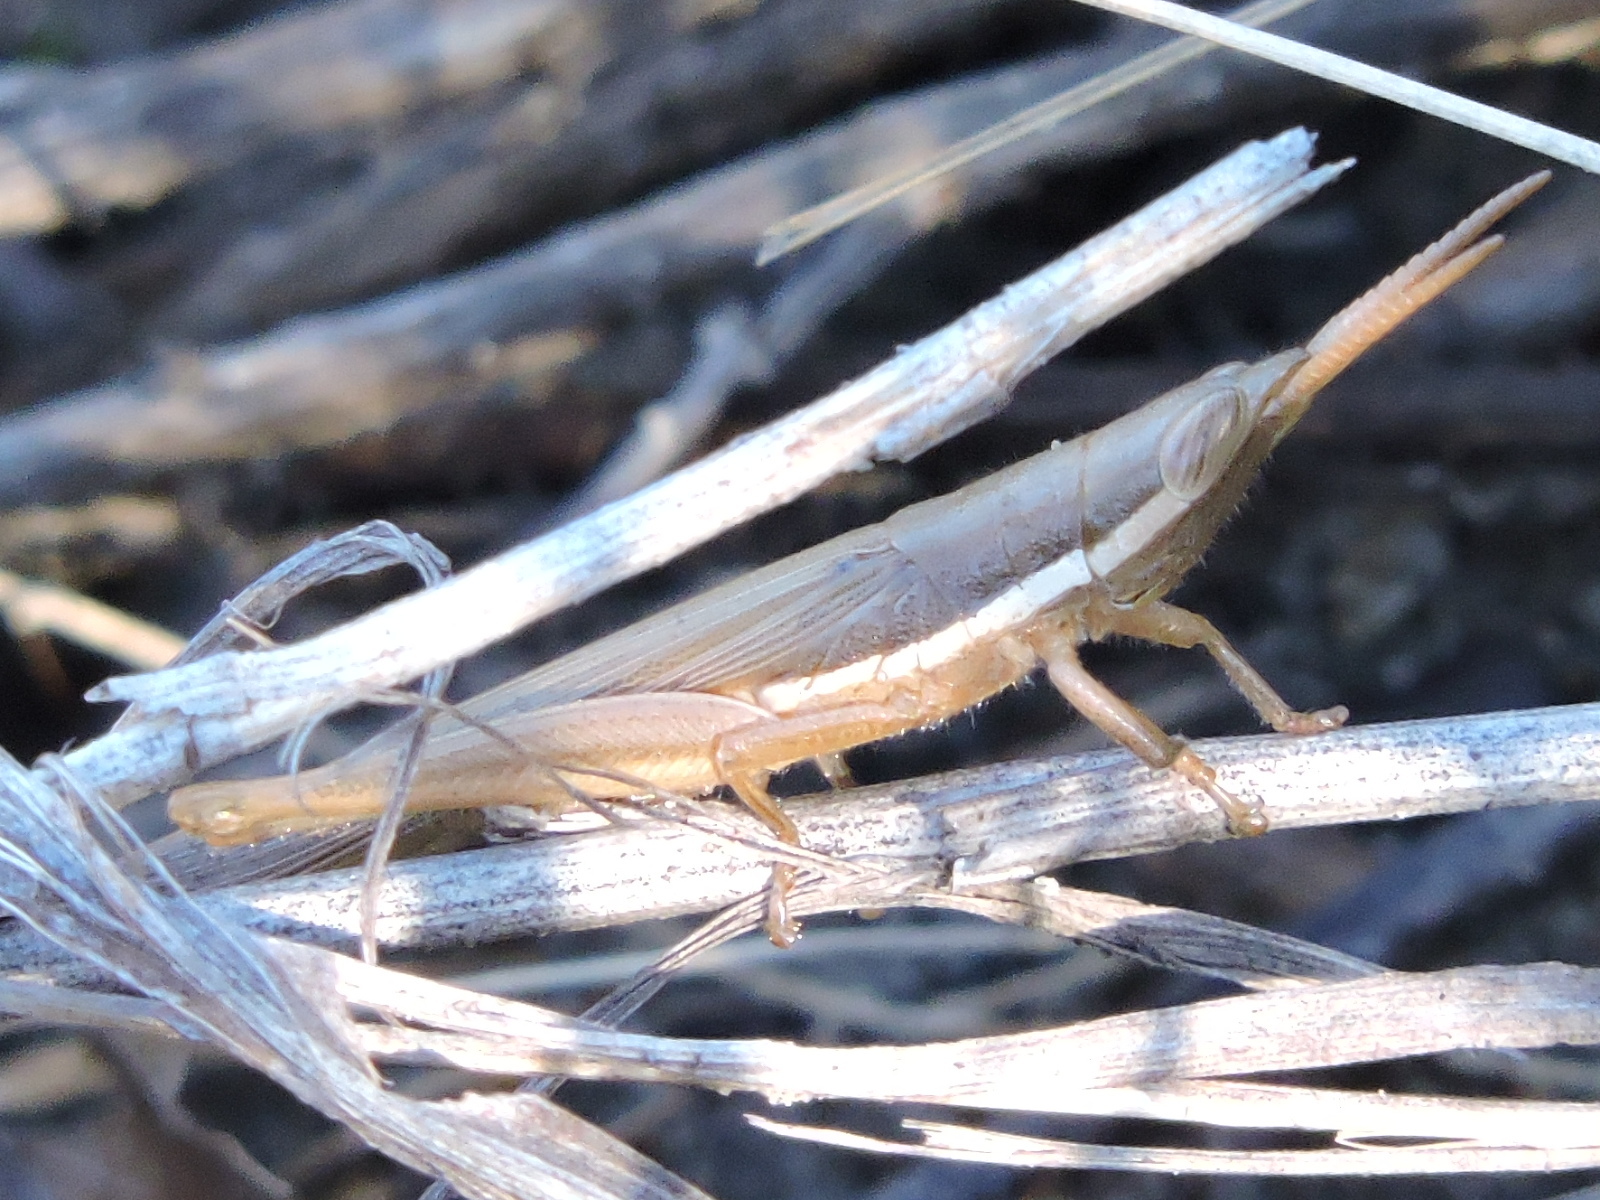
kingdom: Animalia
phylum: Arthropoda
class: Insecta
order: Orthoptera
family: Acrididae
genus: Leptysma
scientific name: Leptysma marginicollis
